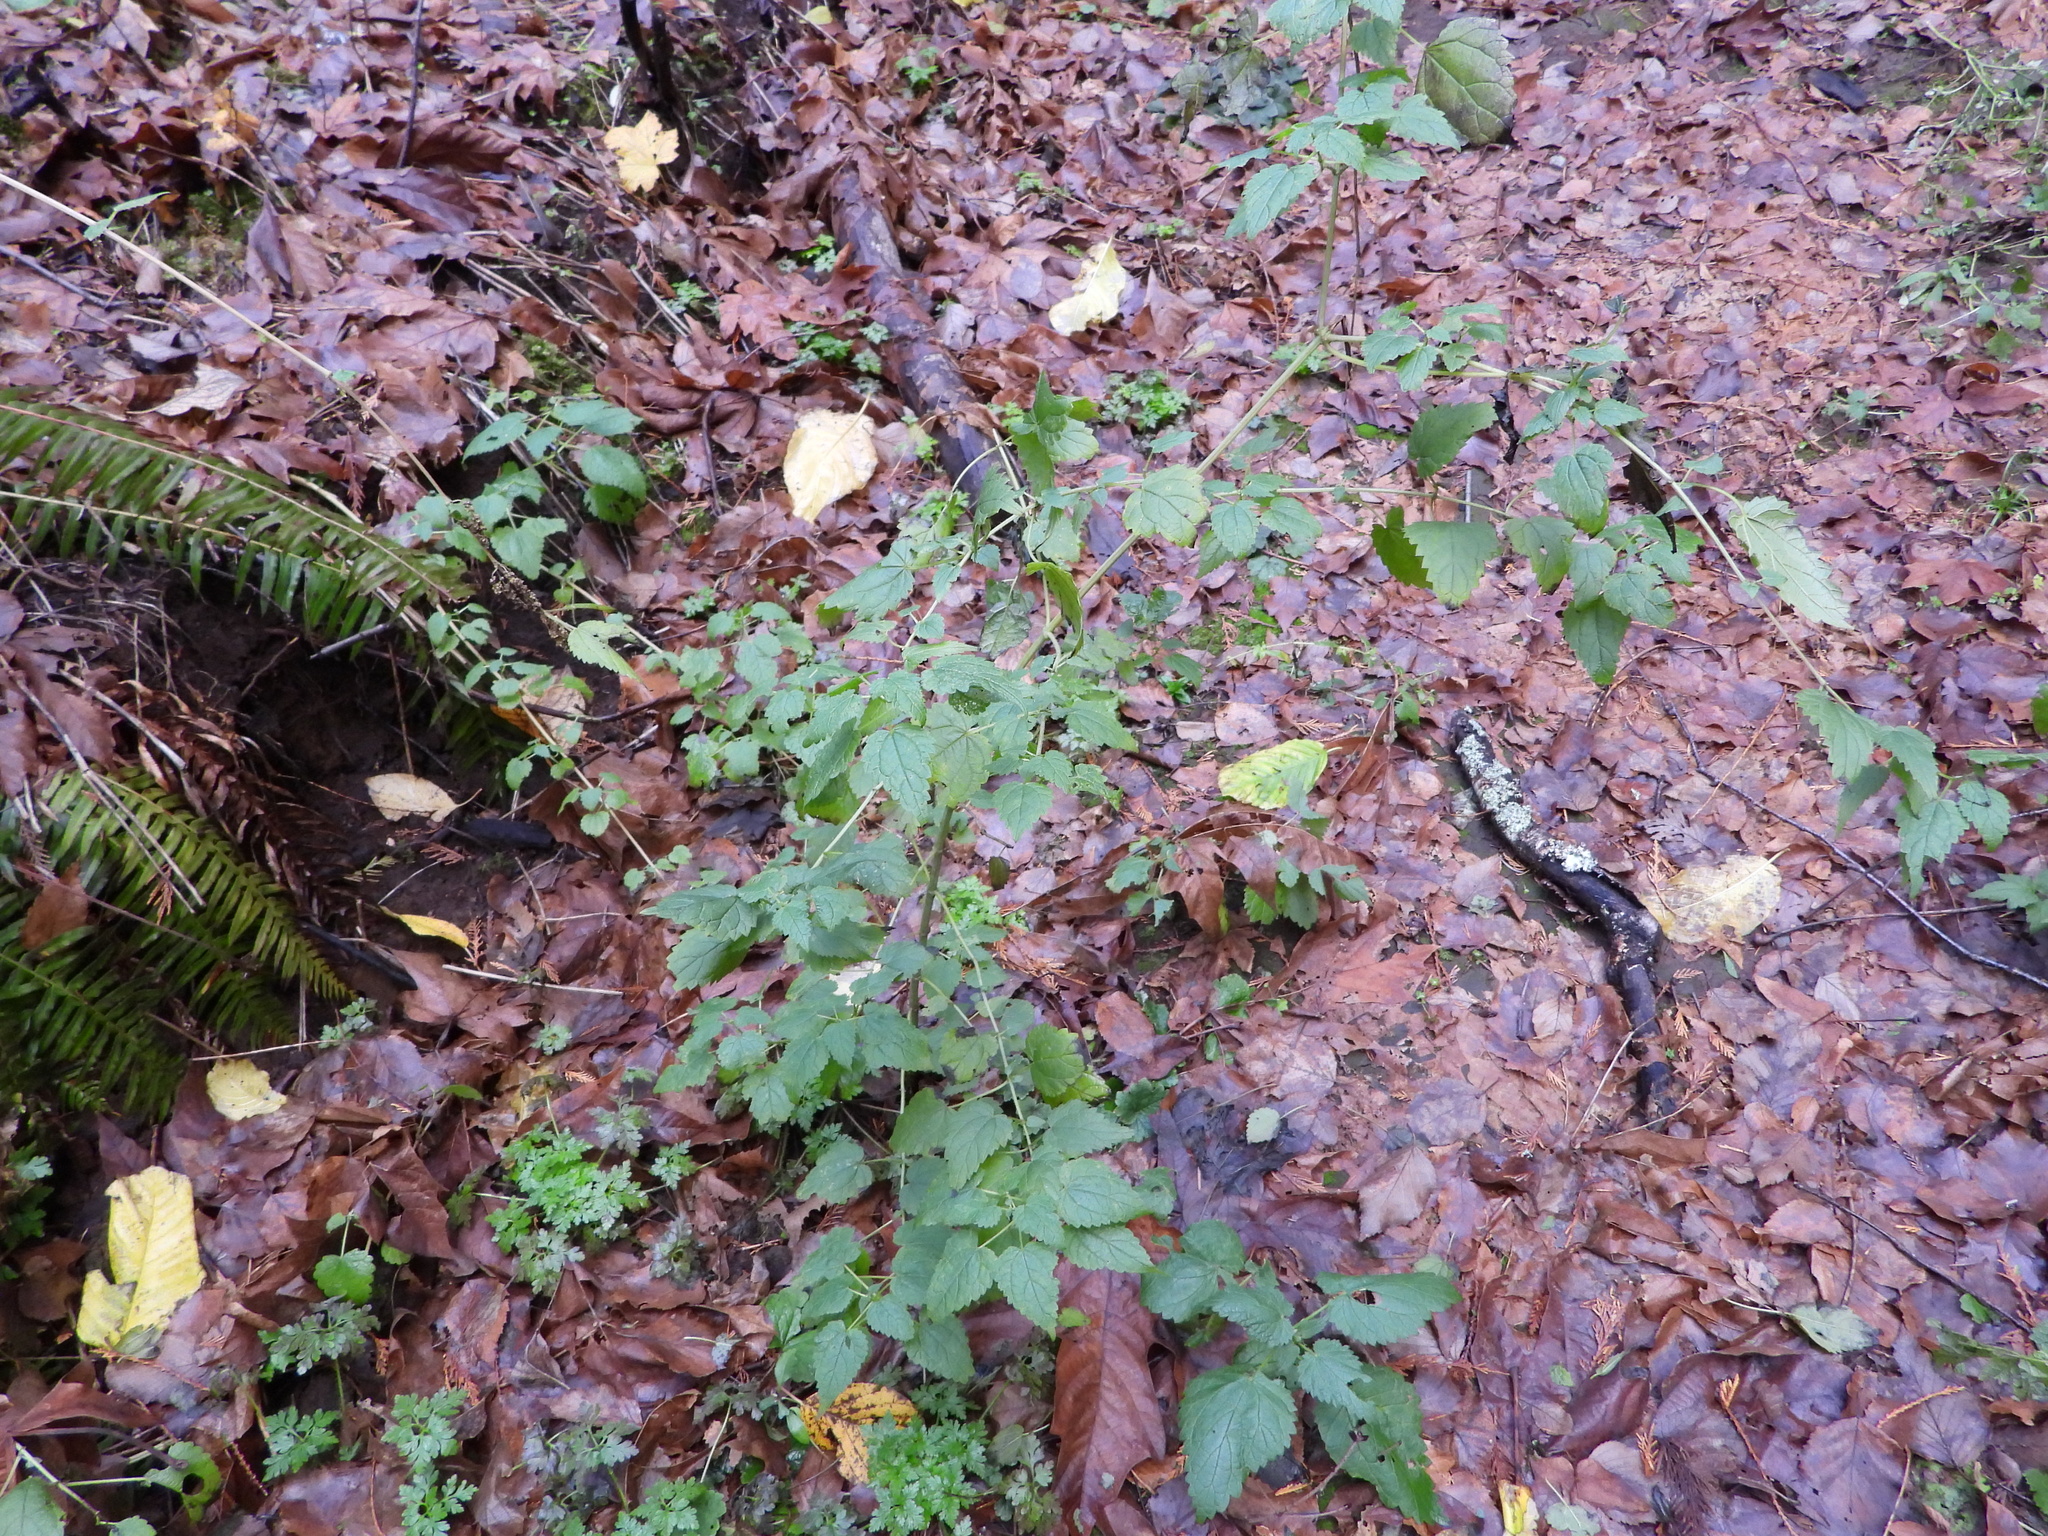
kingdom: Plantae
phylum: Tracheophyta
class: Magnoliopsida
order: Rosales
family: Urticaceae
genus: Urtica
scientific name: Urtica dioica
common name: Common nettle
